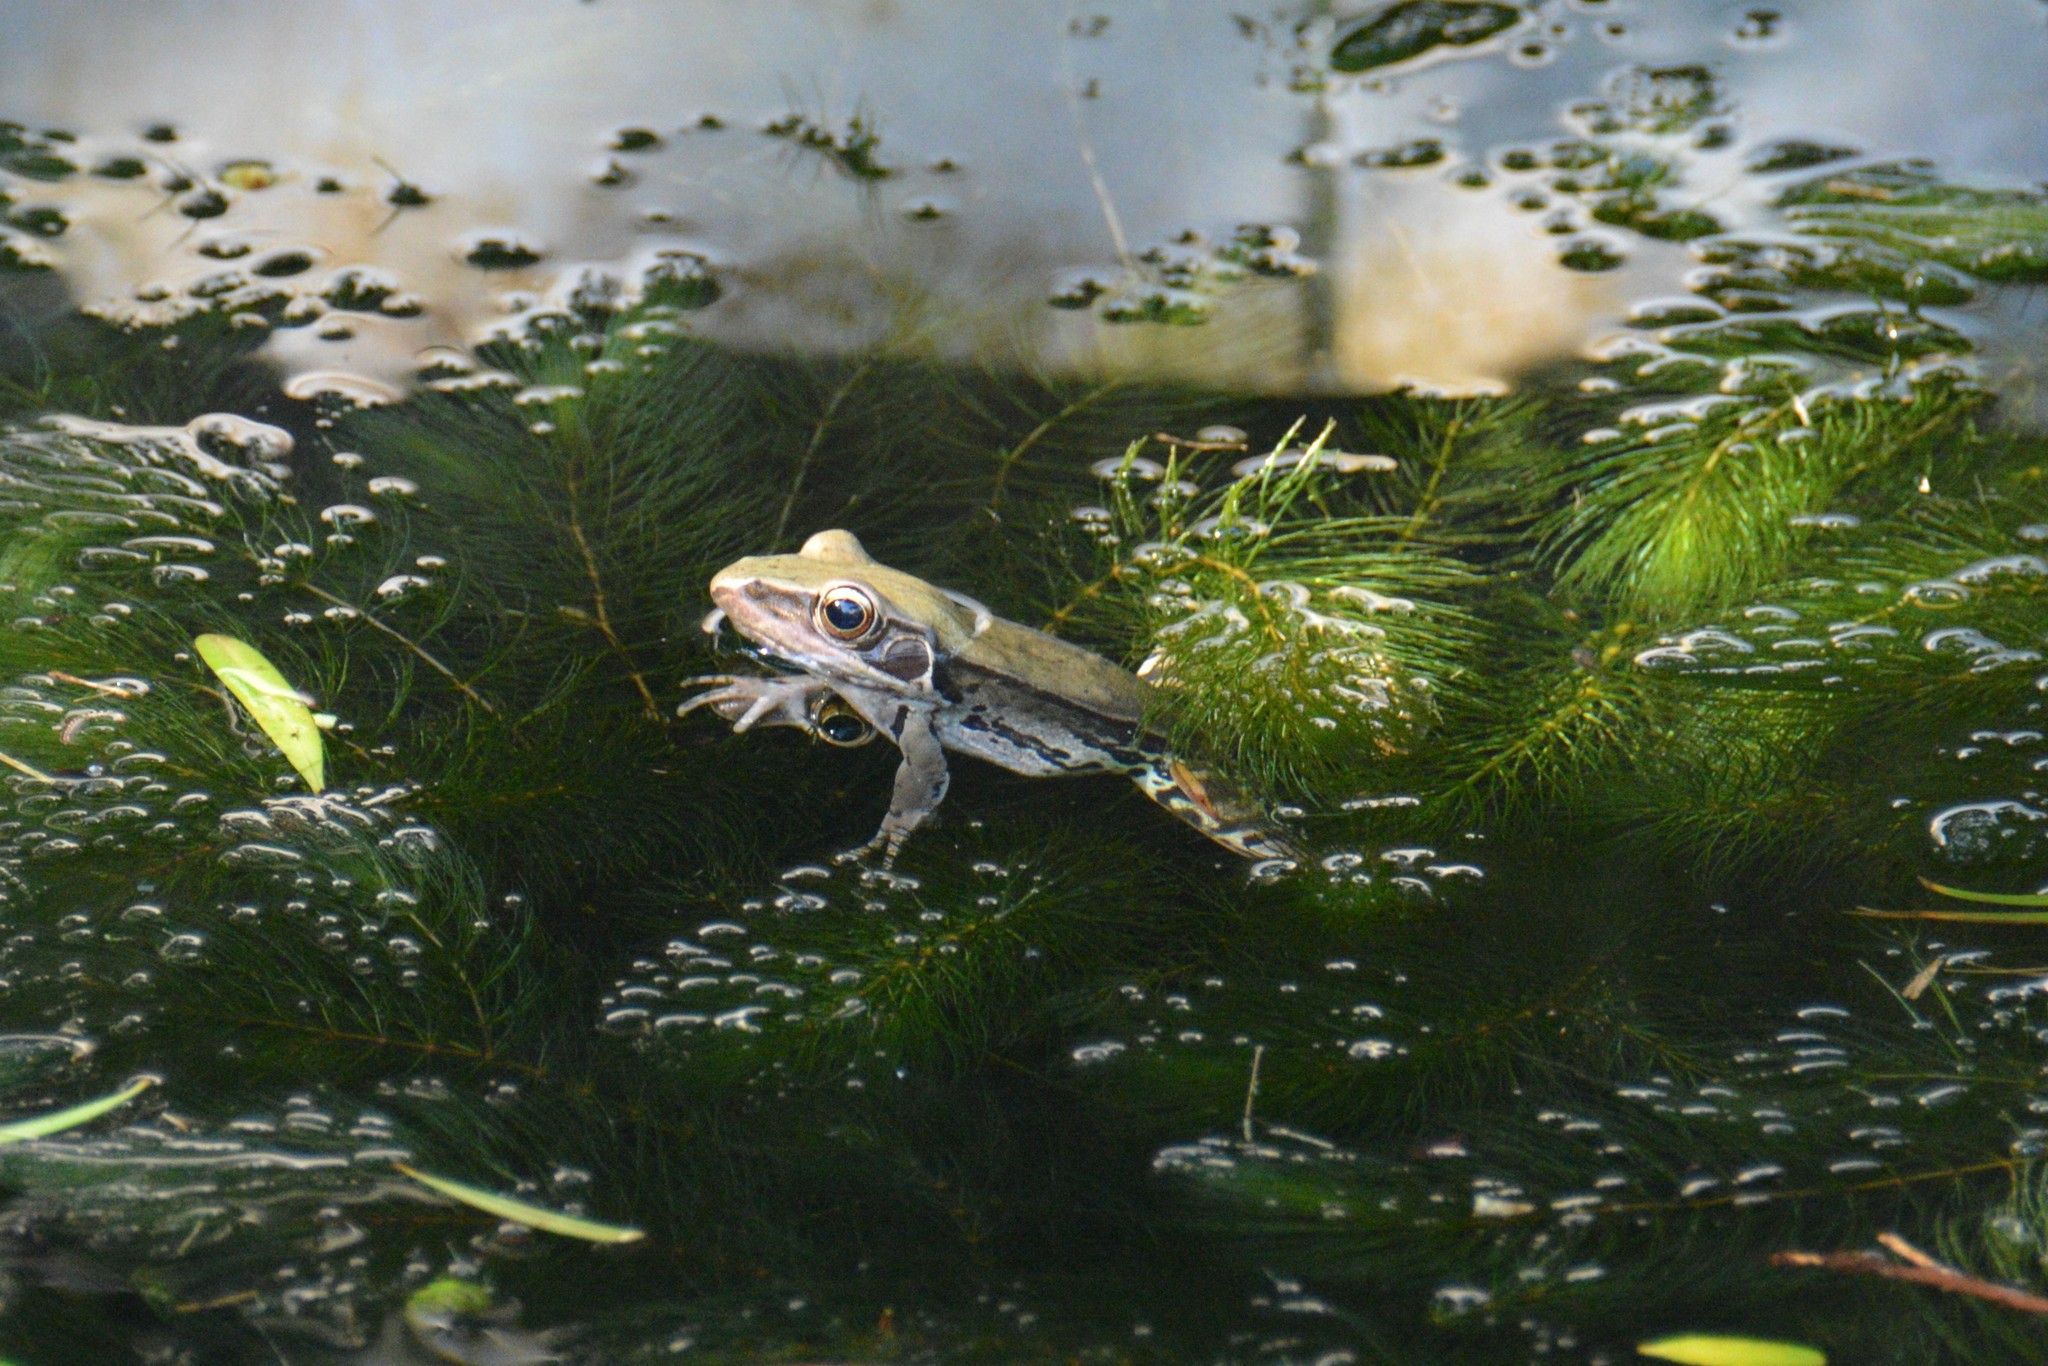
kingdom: Animalia
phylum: Chordata
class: Amphibia
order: Anura
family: Ranidae
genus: Sylvirana
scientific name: Sylvirana guentheri
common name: Guenther's amoy frog
